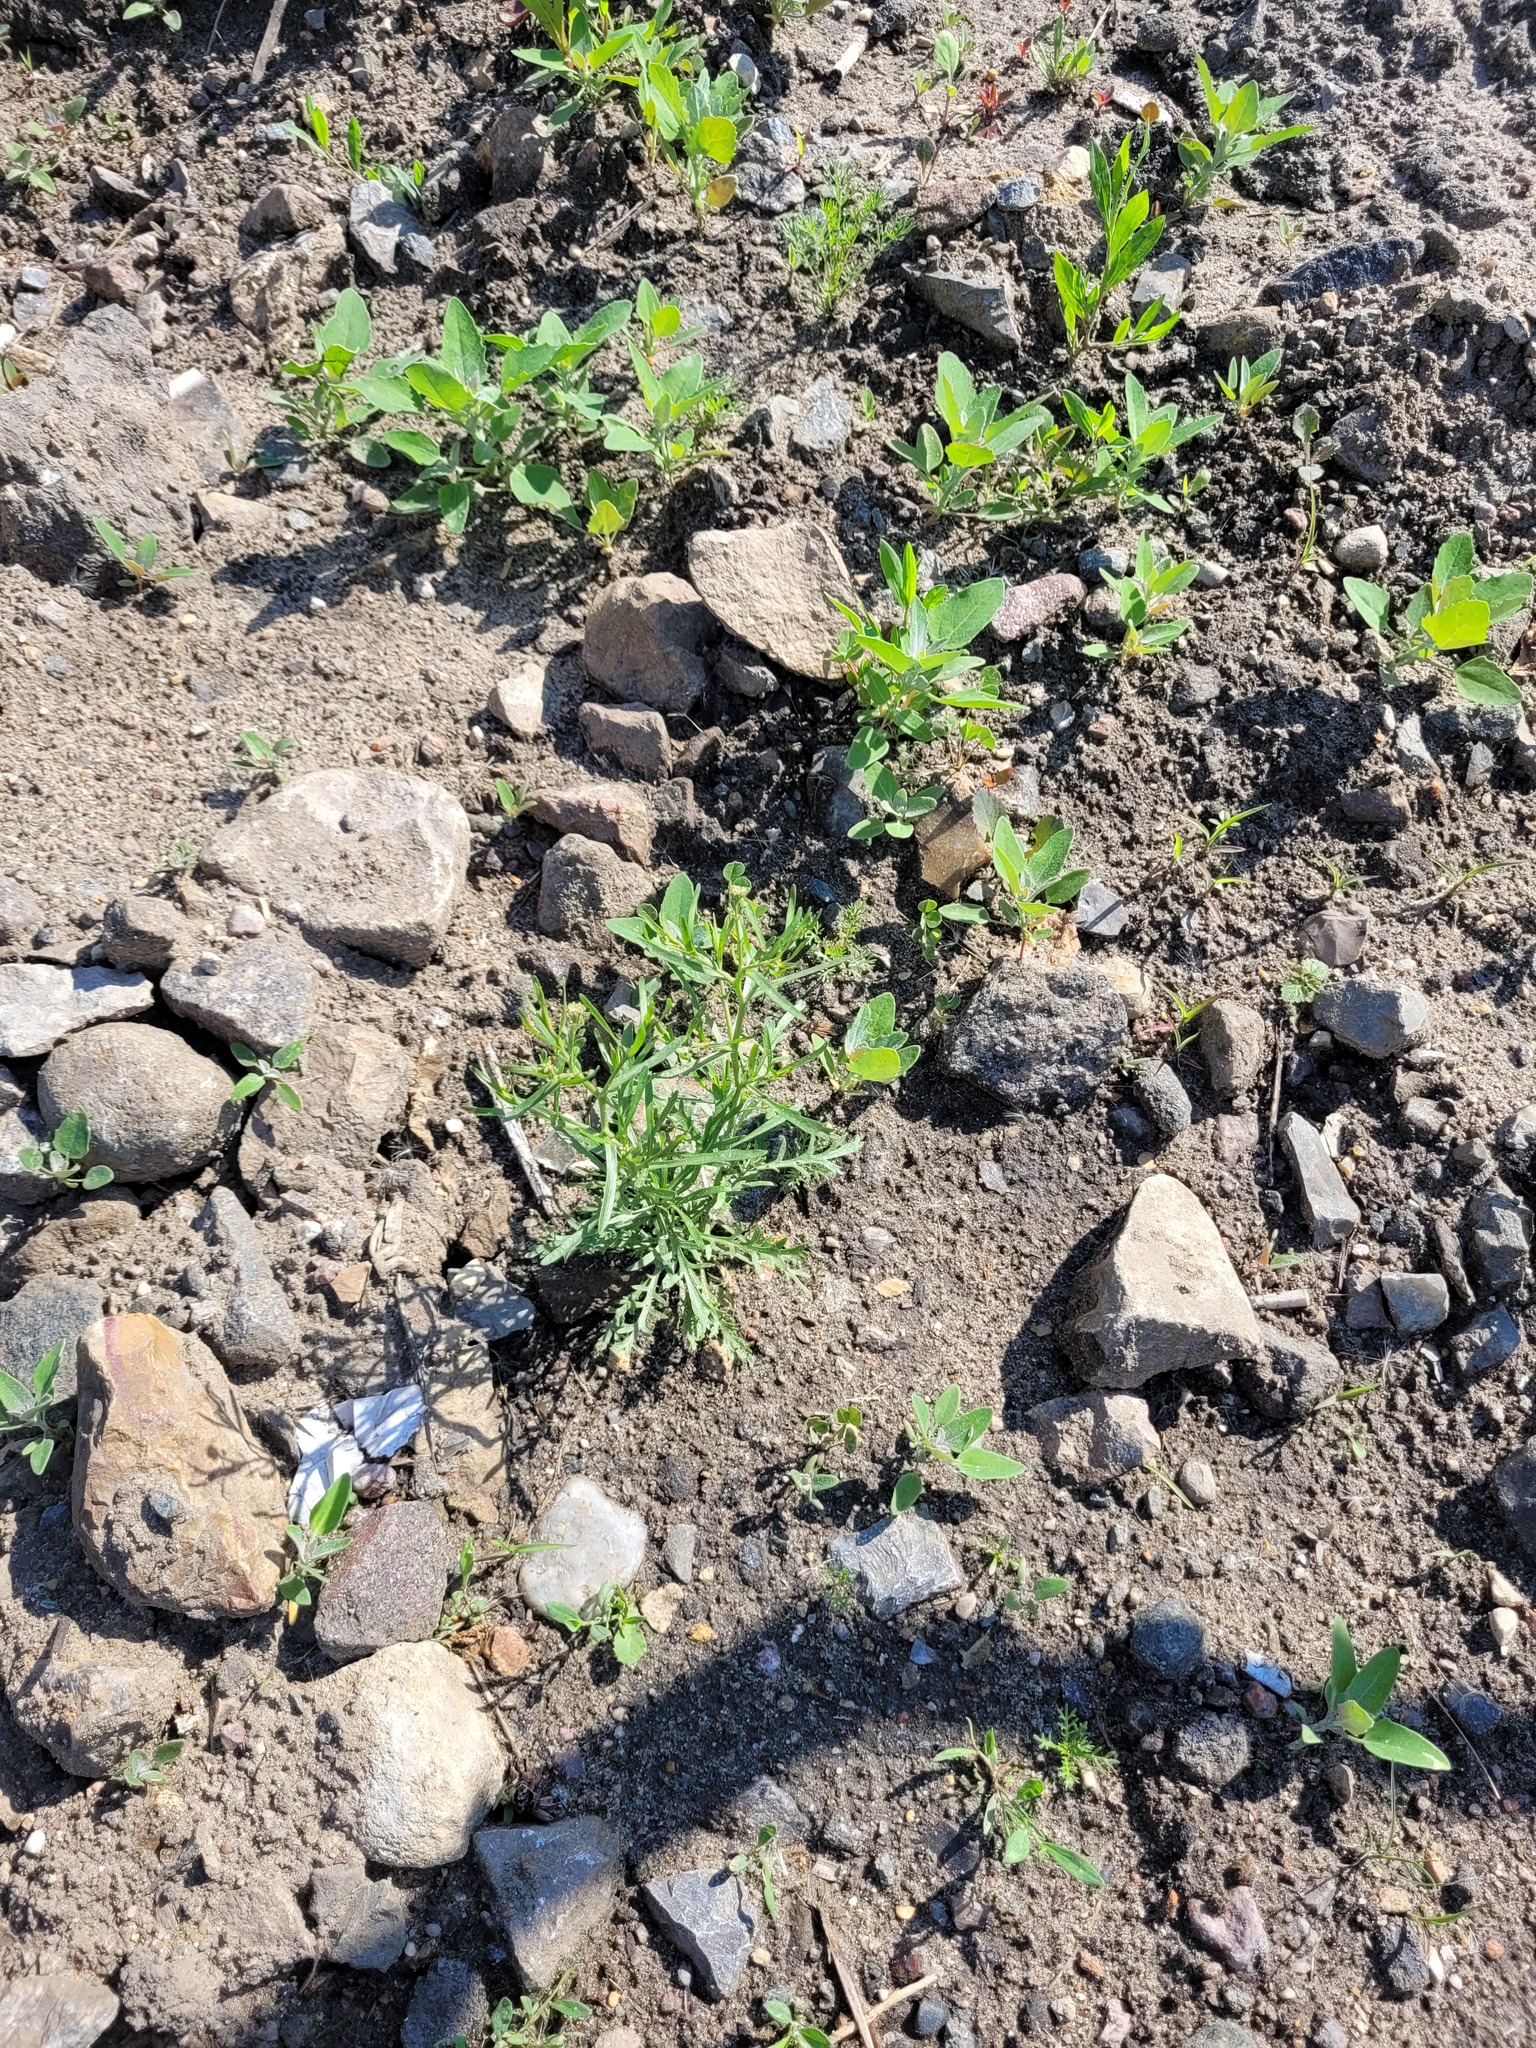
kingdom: Plantae
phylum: Tracheophyta
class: Magnoliopsida
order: Brassicales
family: Brassicaceae
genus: Lepidium
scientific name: Lepidium ruderale
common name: Narrow-leaved pepperwort
